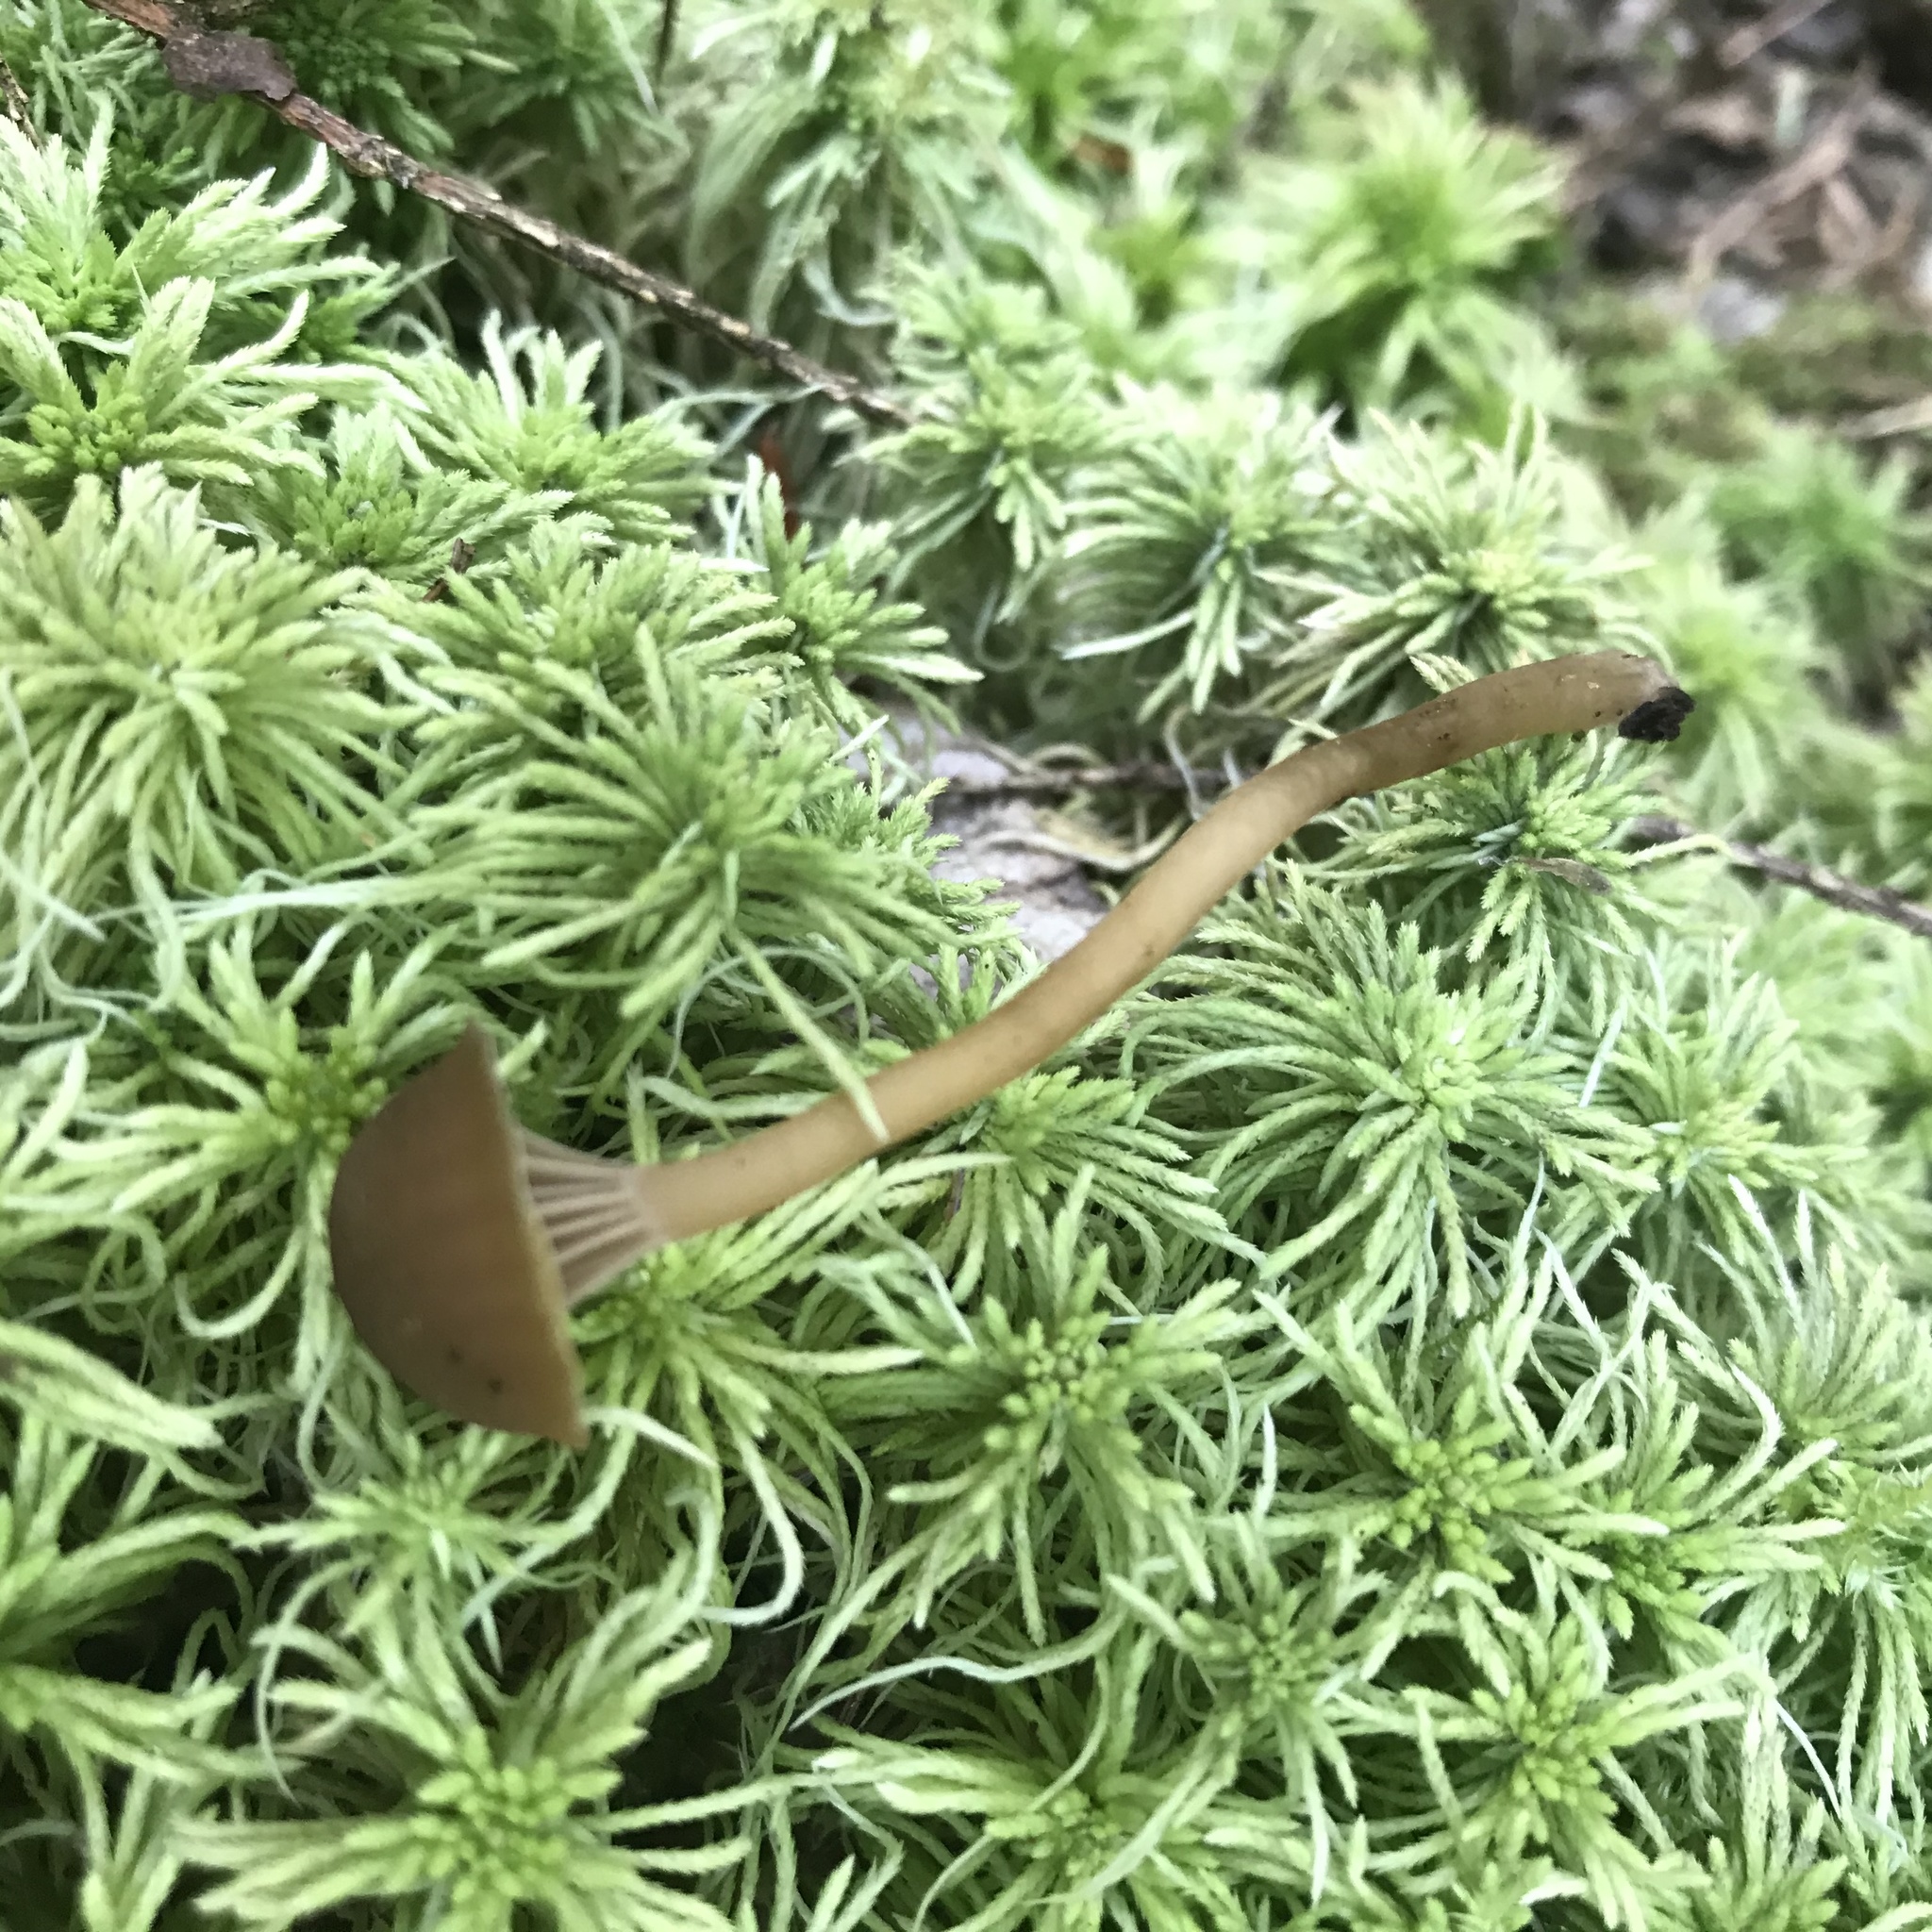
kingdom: Fungi
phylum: Basidiomycota
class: Agaricomycetes
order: Agaricales
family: Clavariaceae
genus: Hodophilus
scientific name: Hodophilus hymenocephalus
